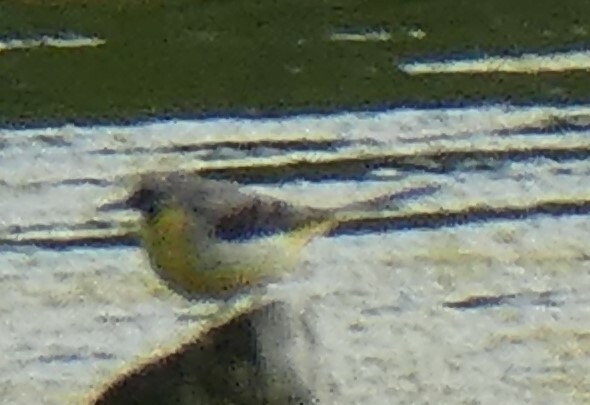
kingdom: Animalia
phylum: Chordata
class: Aves
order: Passeriformes
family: Motacillidae
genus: Motacilla
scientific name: Motacilla cinerea
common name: Grey wagtail
